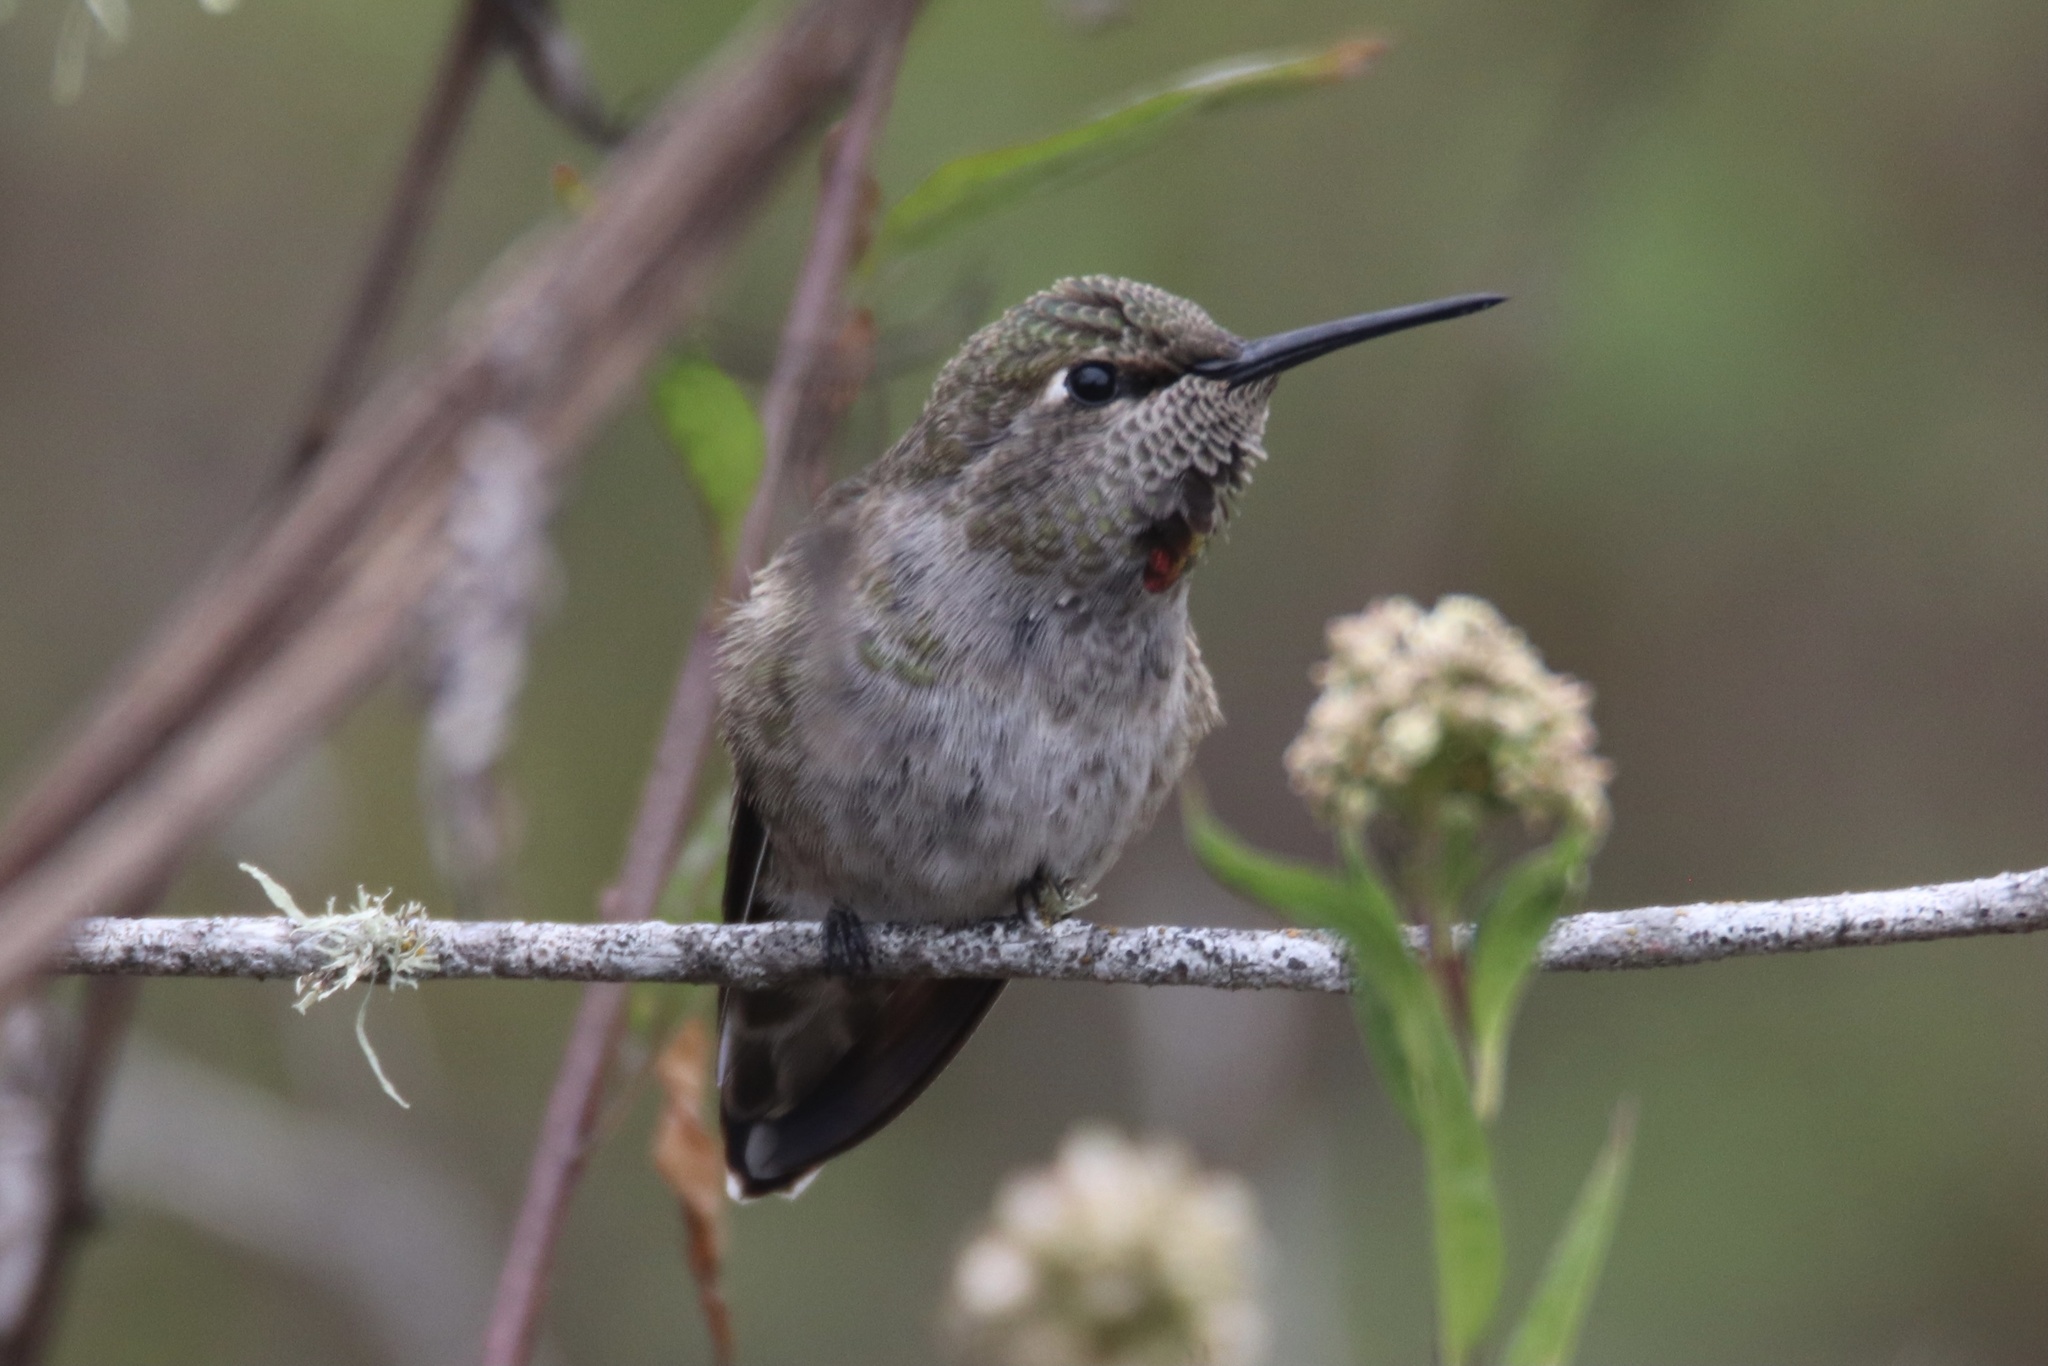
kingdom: Animalia
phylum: Chordata
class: Aves
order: Apodiformes
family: Trochilidae
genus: Calypte
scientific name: Calypte anna
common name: Anna's hummingbird
